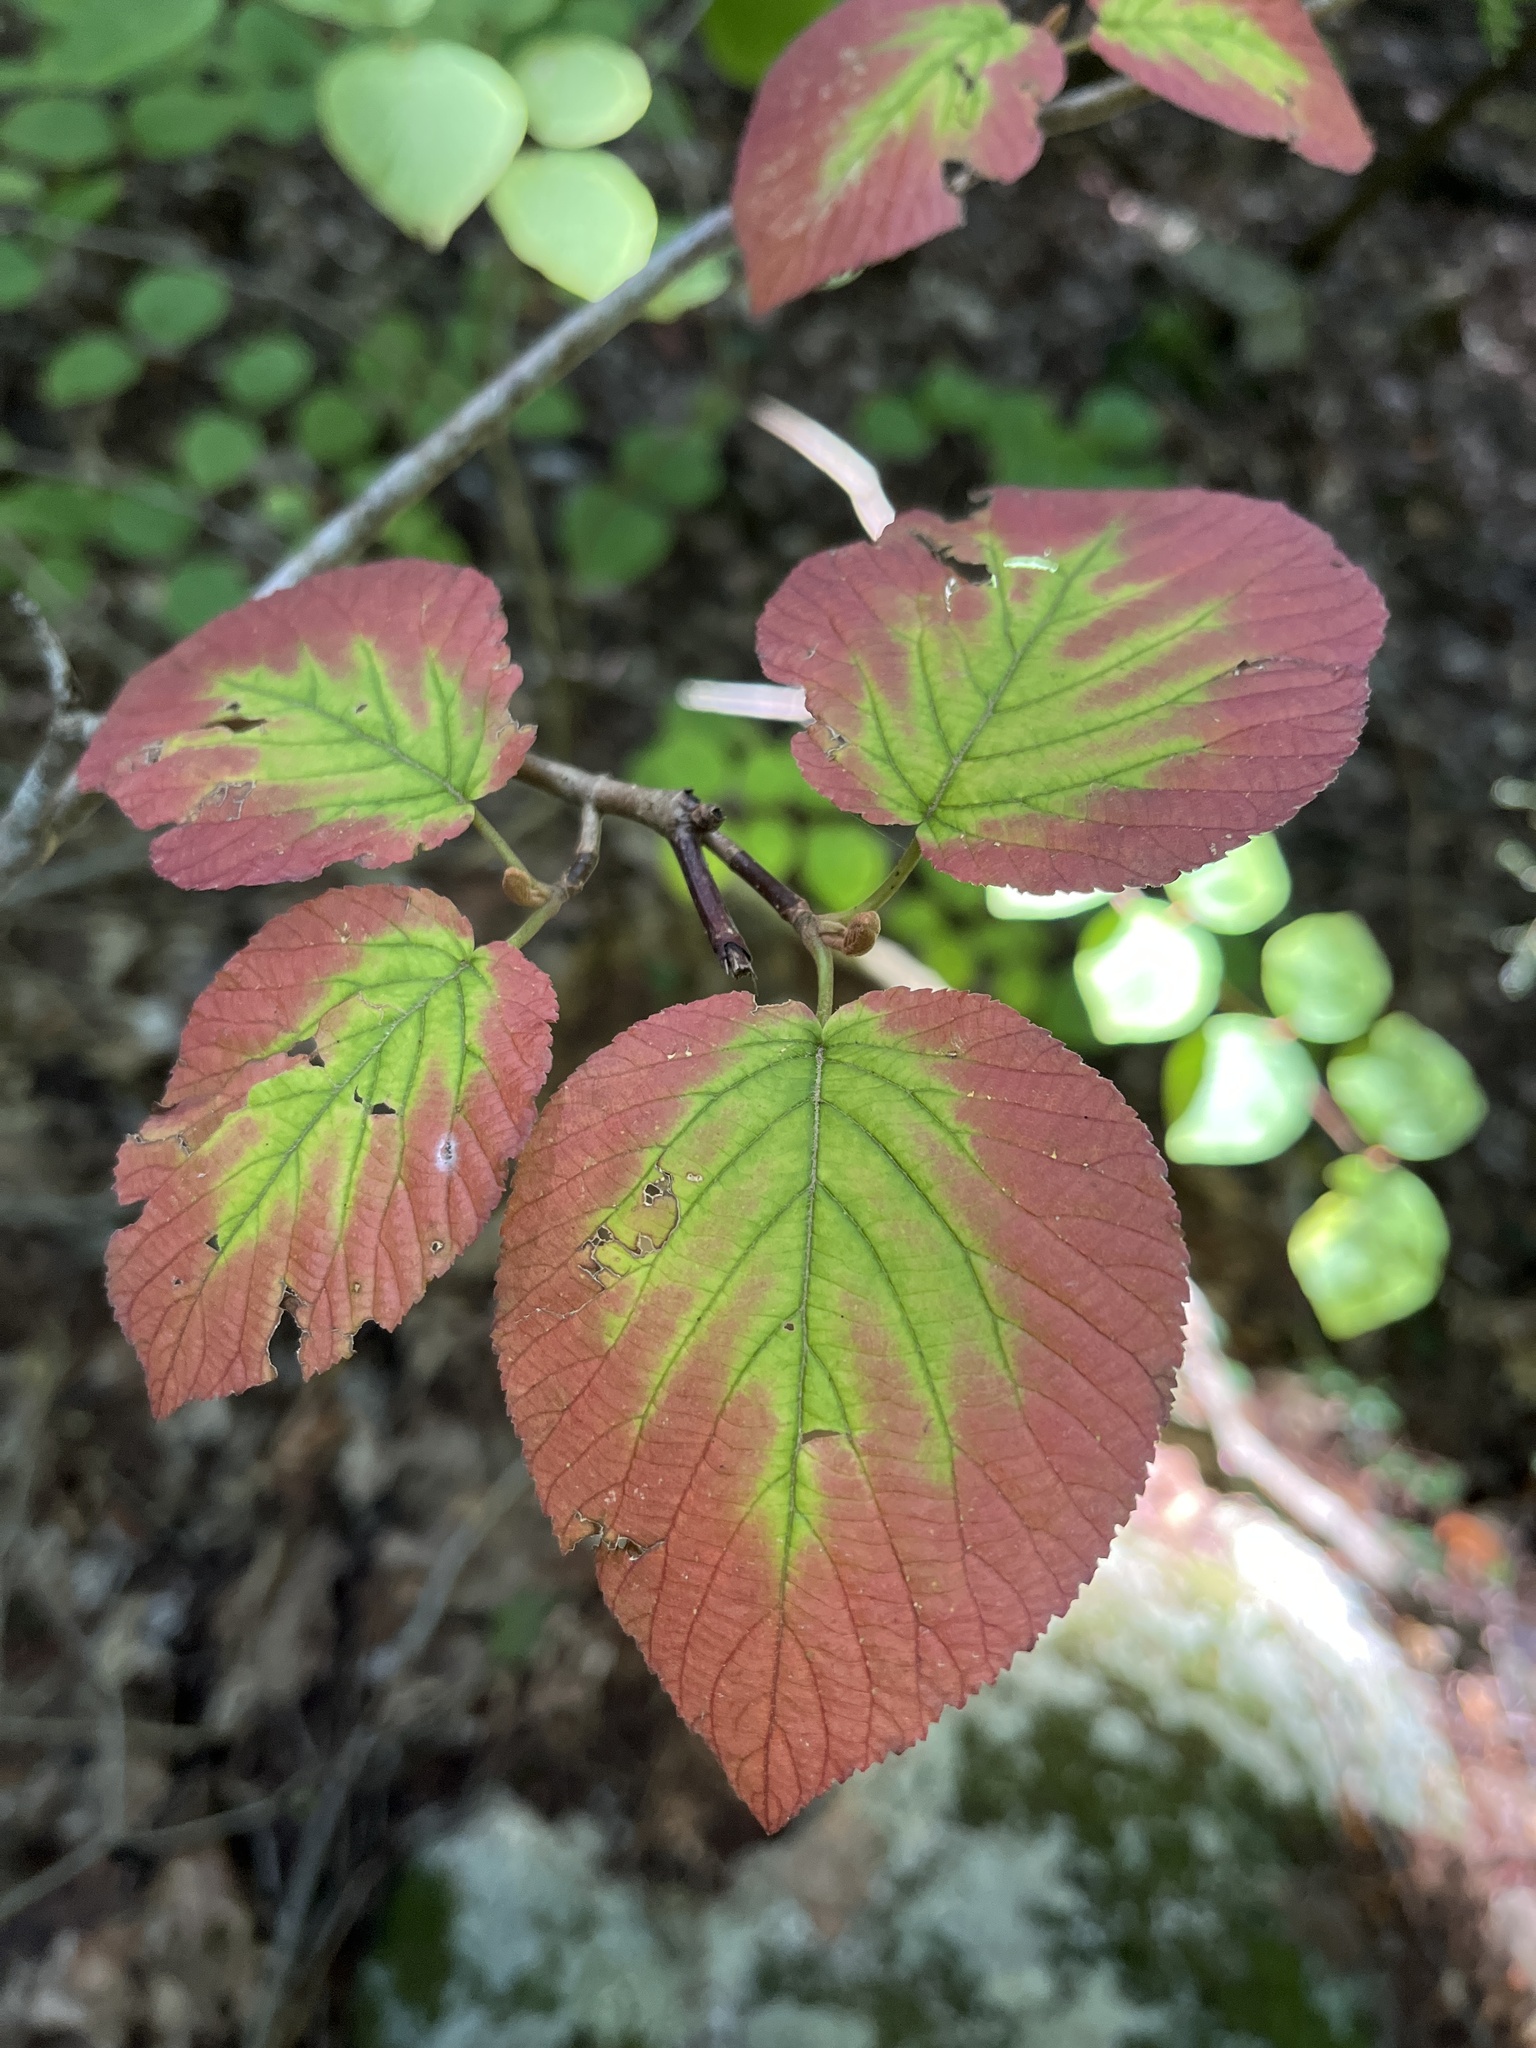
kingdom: Plantae
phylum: Tracheophyta
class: Magnoliopsida
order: Dipsacales
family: Viburnaceae
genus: Viburnum
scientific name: Viburnum lantanoides
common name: Hobblebush
